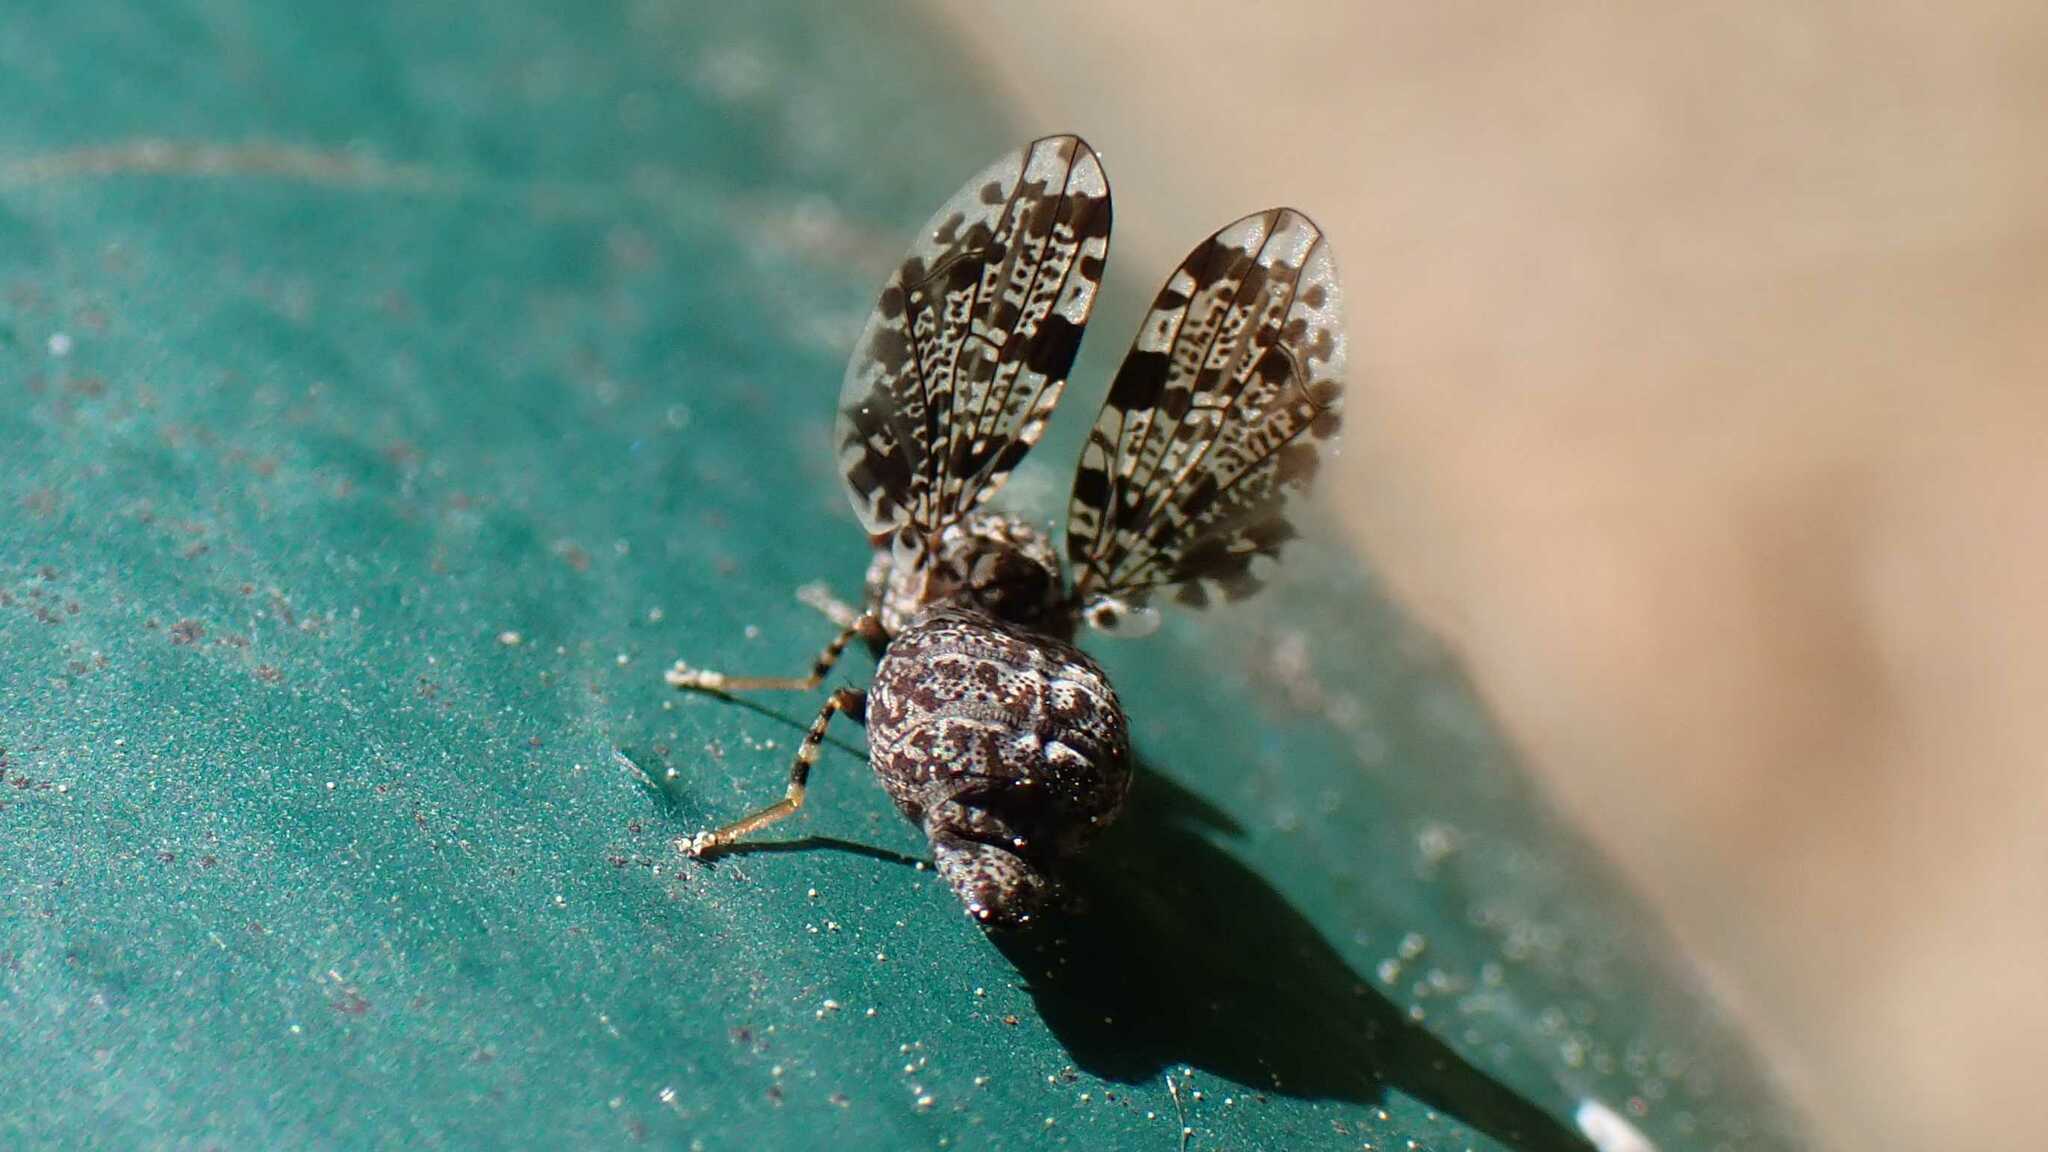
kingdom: Animalia
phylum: Arthropoda
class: Insecta
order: Diptera
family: Ulidiidae
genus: Callopistromyia
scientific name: Callopistromyia annulipes
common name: Peacock fly
